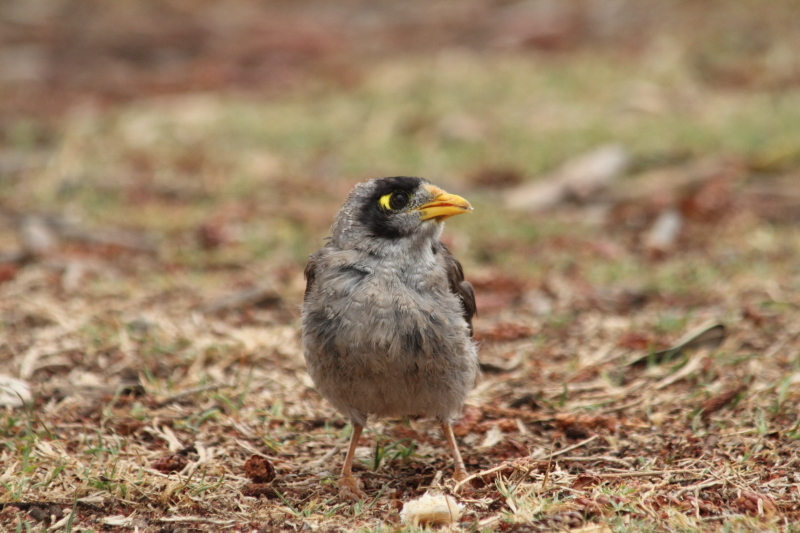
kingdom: Animalia
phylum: Chordata
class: Aves
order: Passeriformes
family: Meliphagidae
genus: Manorina
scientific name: Manorina melanocephala
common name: Noisy miner
